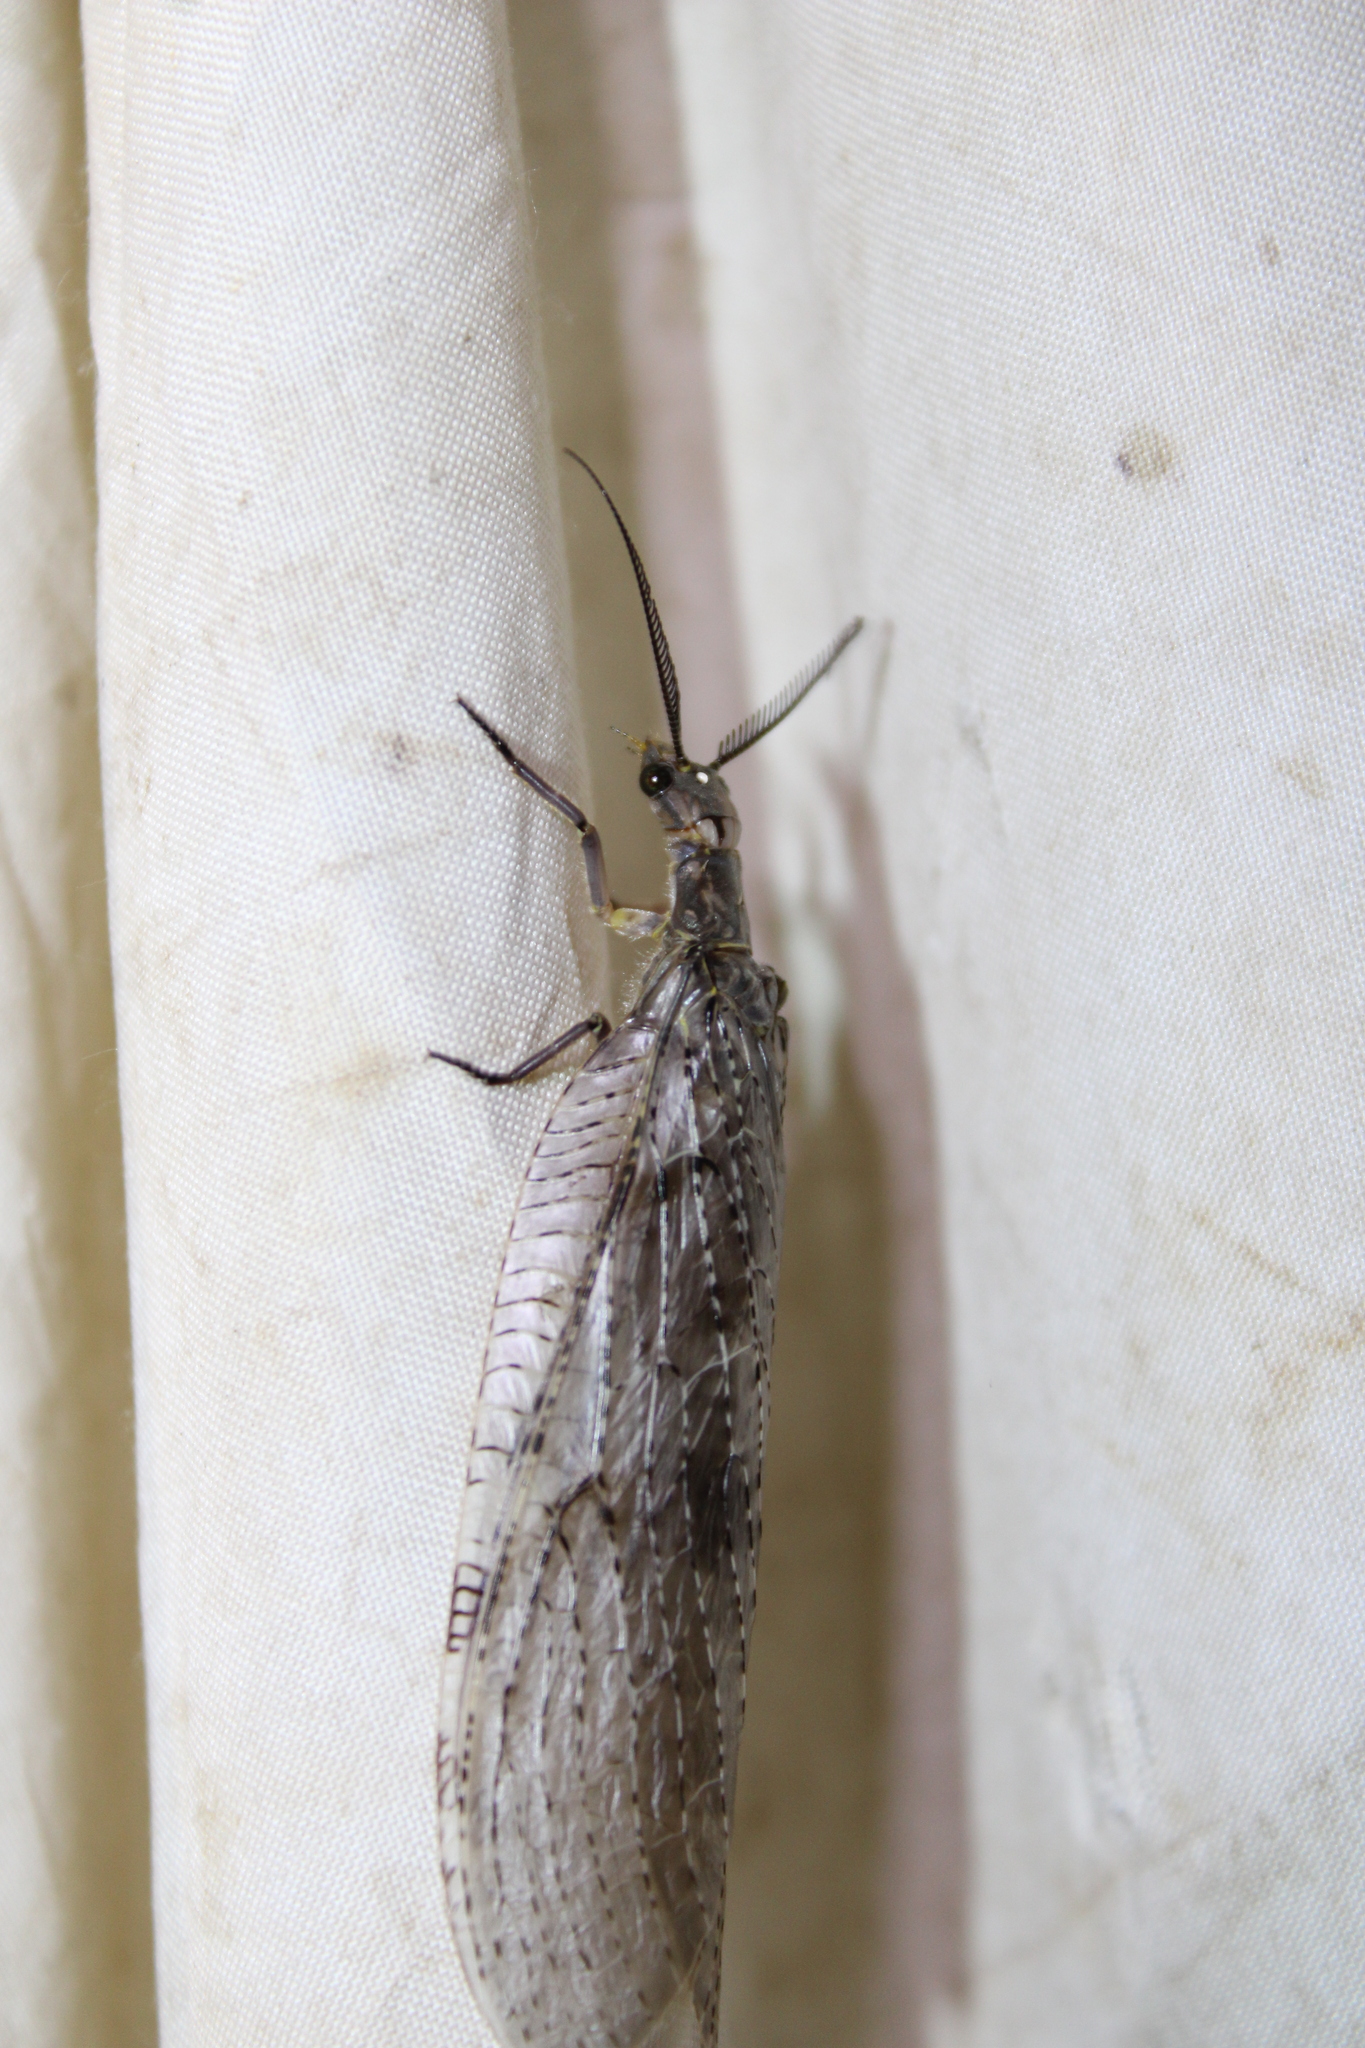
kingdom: Animalia
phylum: Arthropoda
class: Insecta
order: Megaloptera
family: Corydalidae
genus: Chauliodes
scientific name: Chauliodes pectinicornis
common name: Summer fishfly
